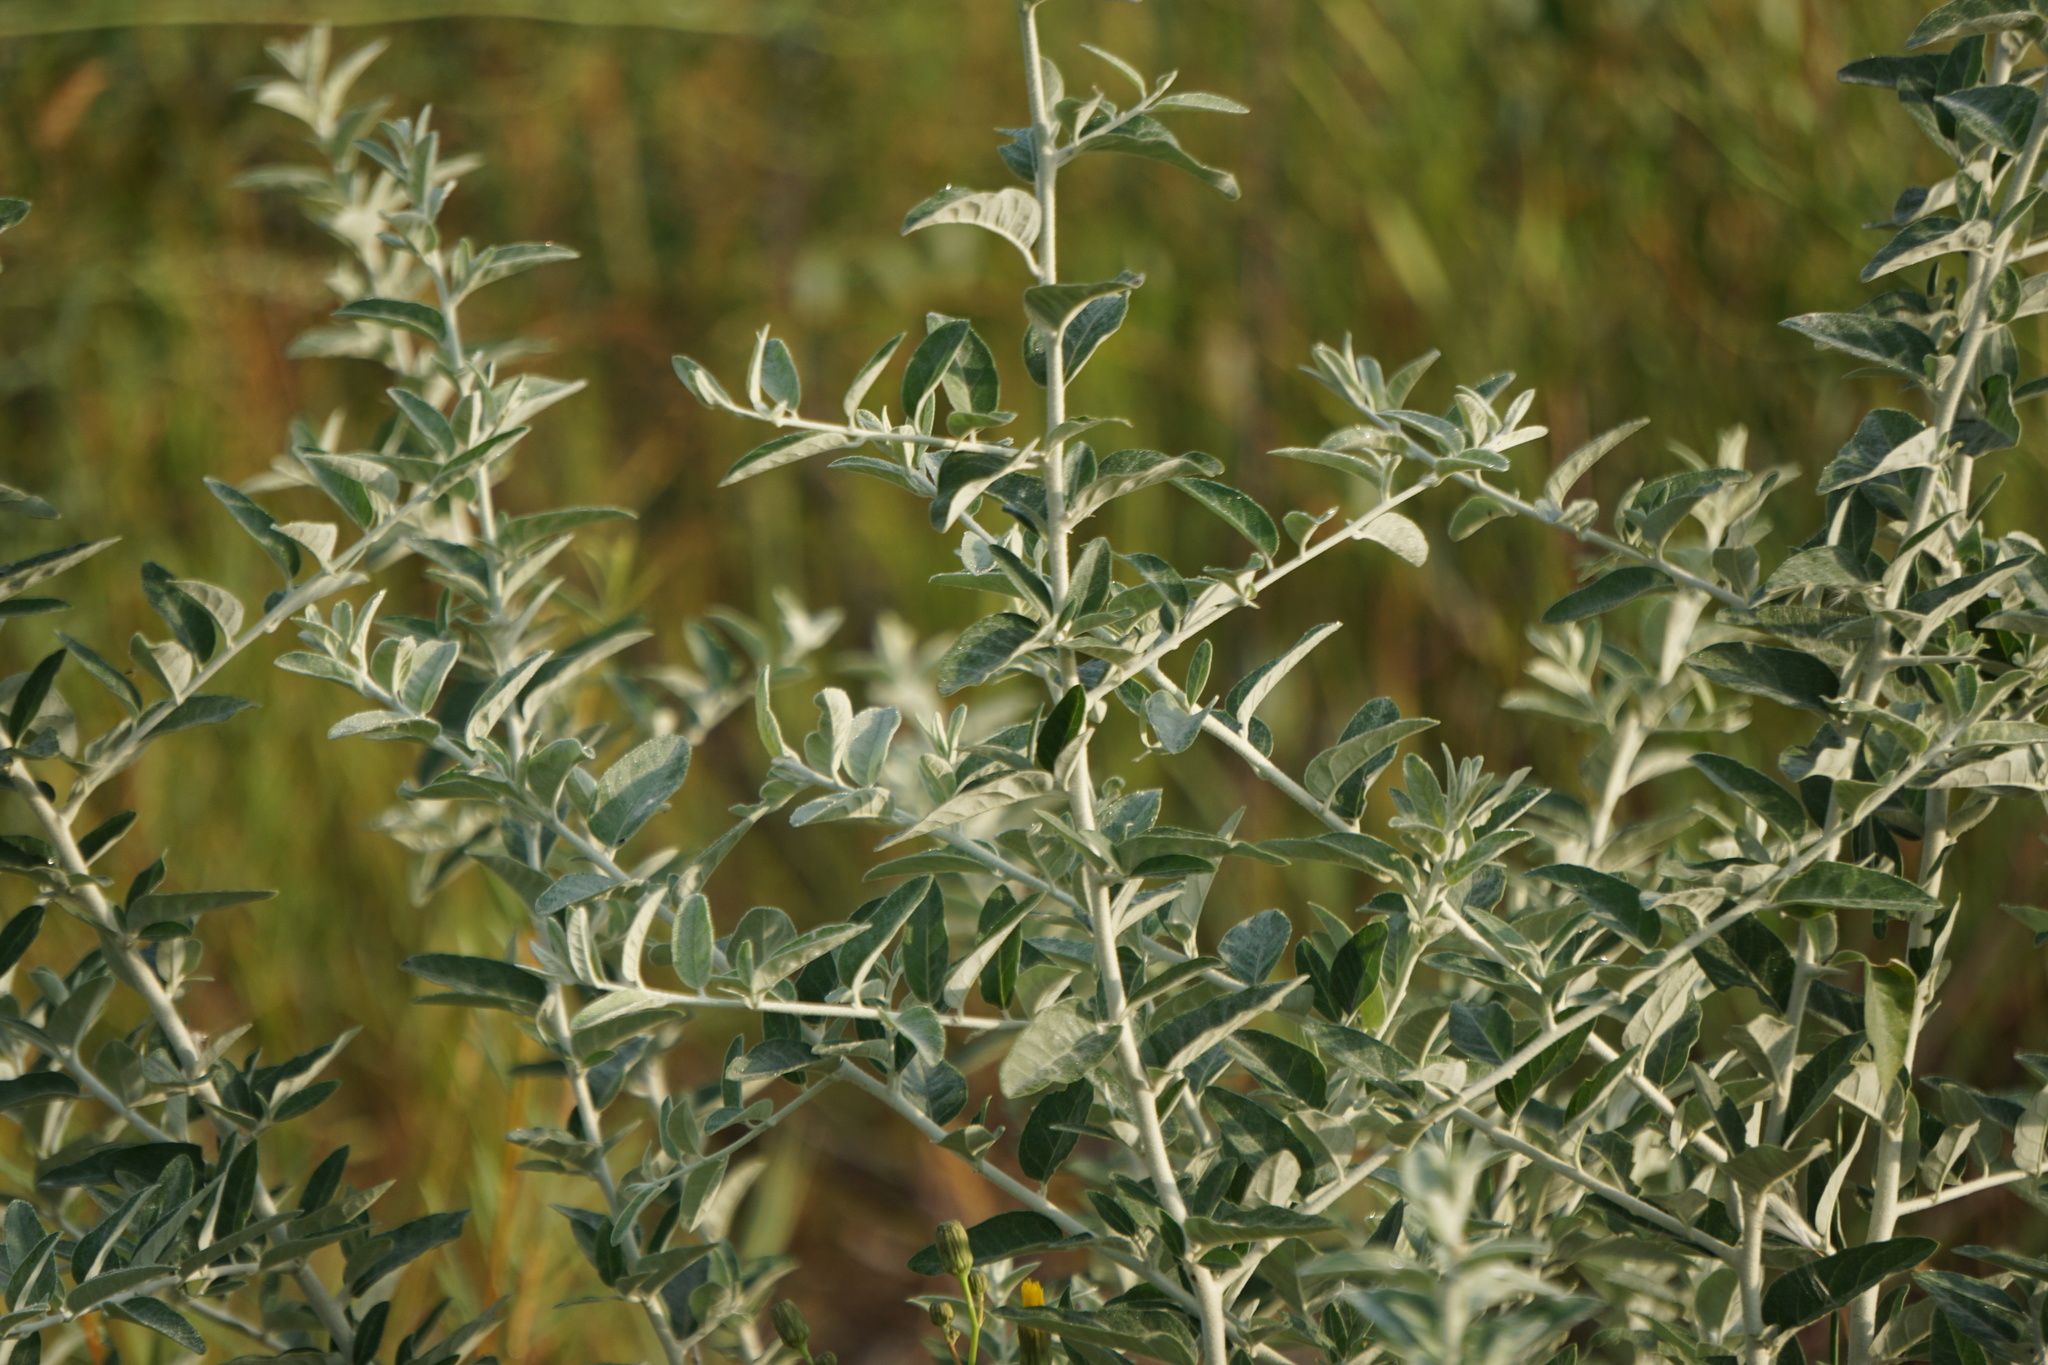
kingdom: Plantae
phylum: Tracheophyta
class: Magnoliopsida
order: Rosales
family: Elaeagnaceae
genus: Elaeagnus
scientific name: Elaeagnus angustifolia
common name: Russian olive
